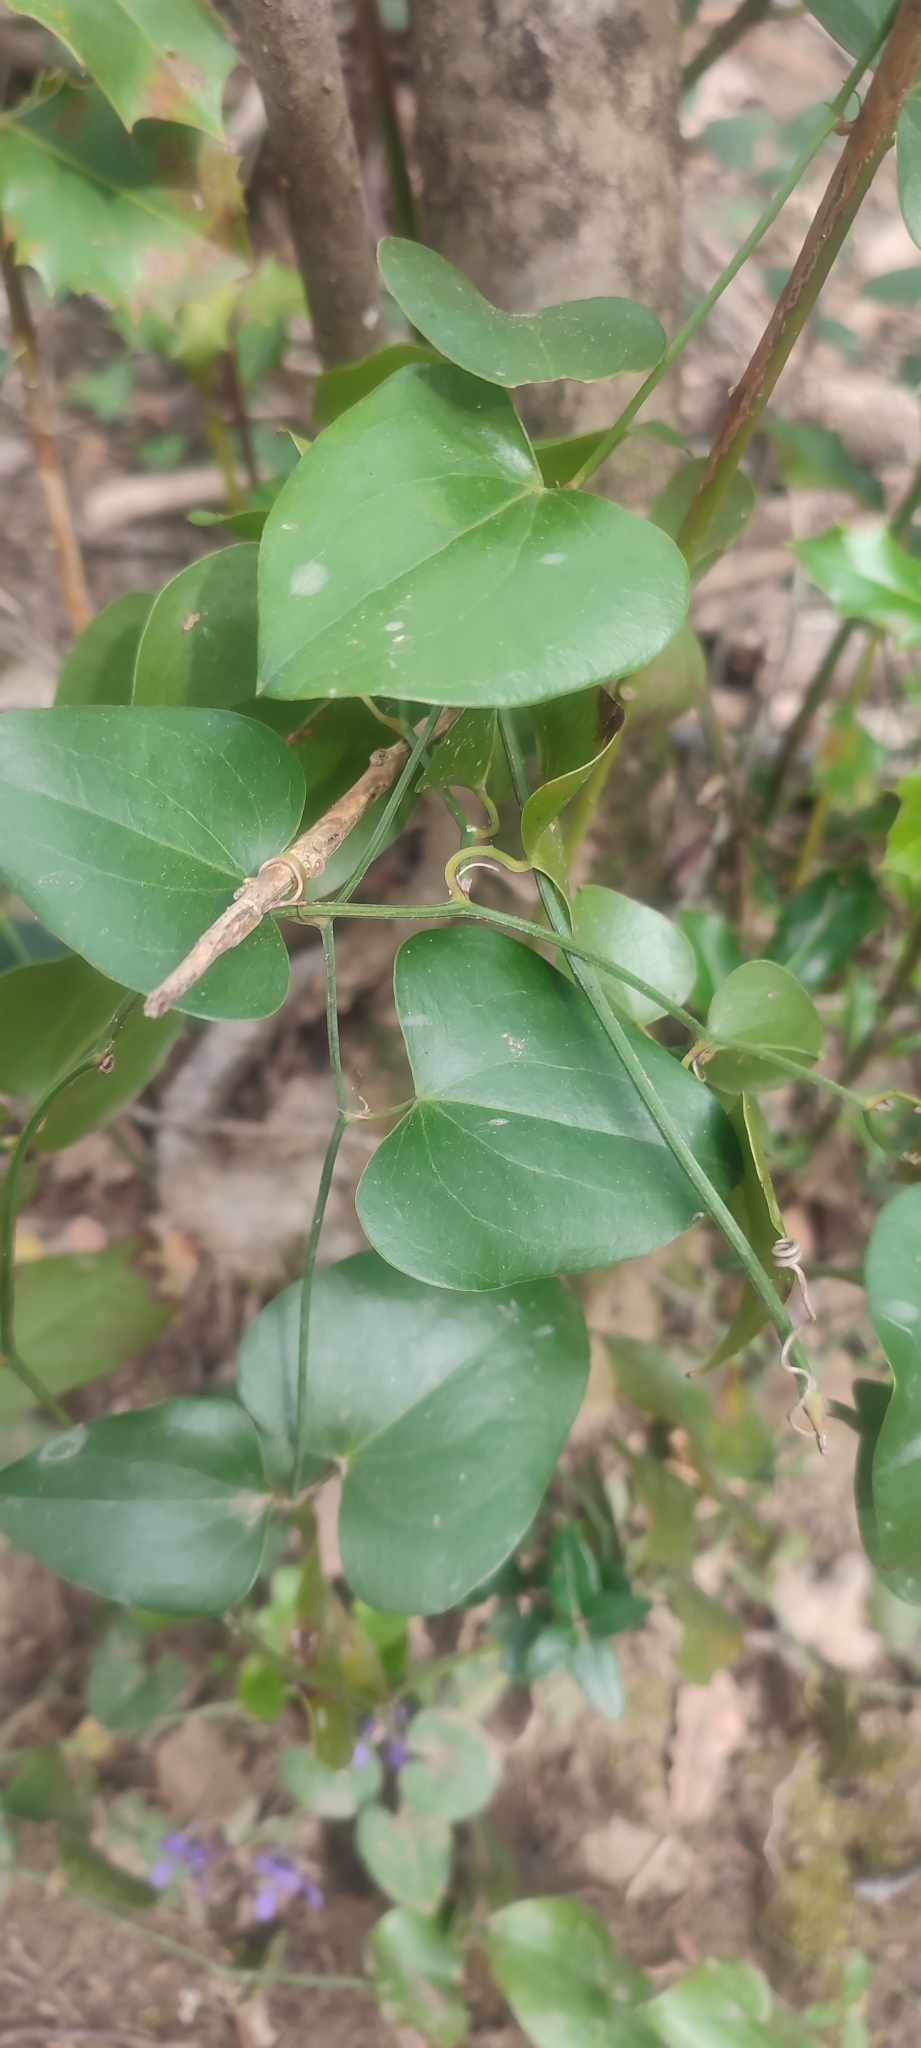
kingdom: Plantae
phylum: Tracheophyta
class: Liliopsida
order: Liliales
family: Smilacaceae
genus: Smilax
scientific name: Smilax aspera
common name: Common smilax
